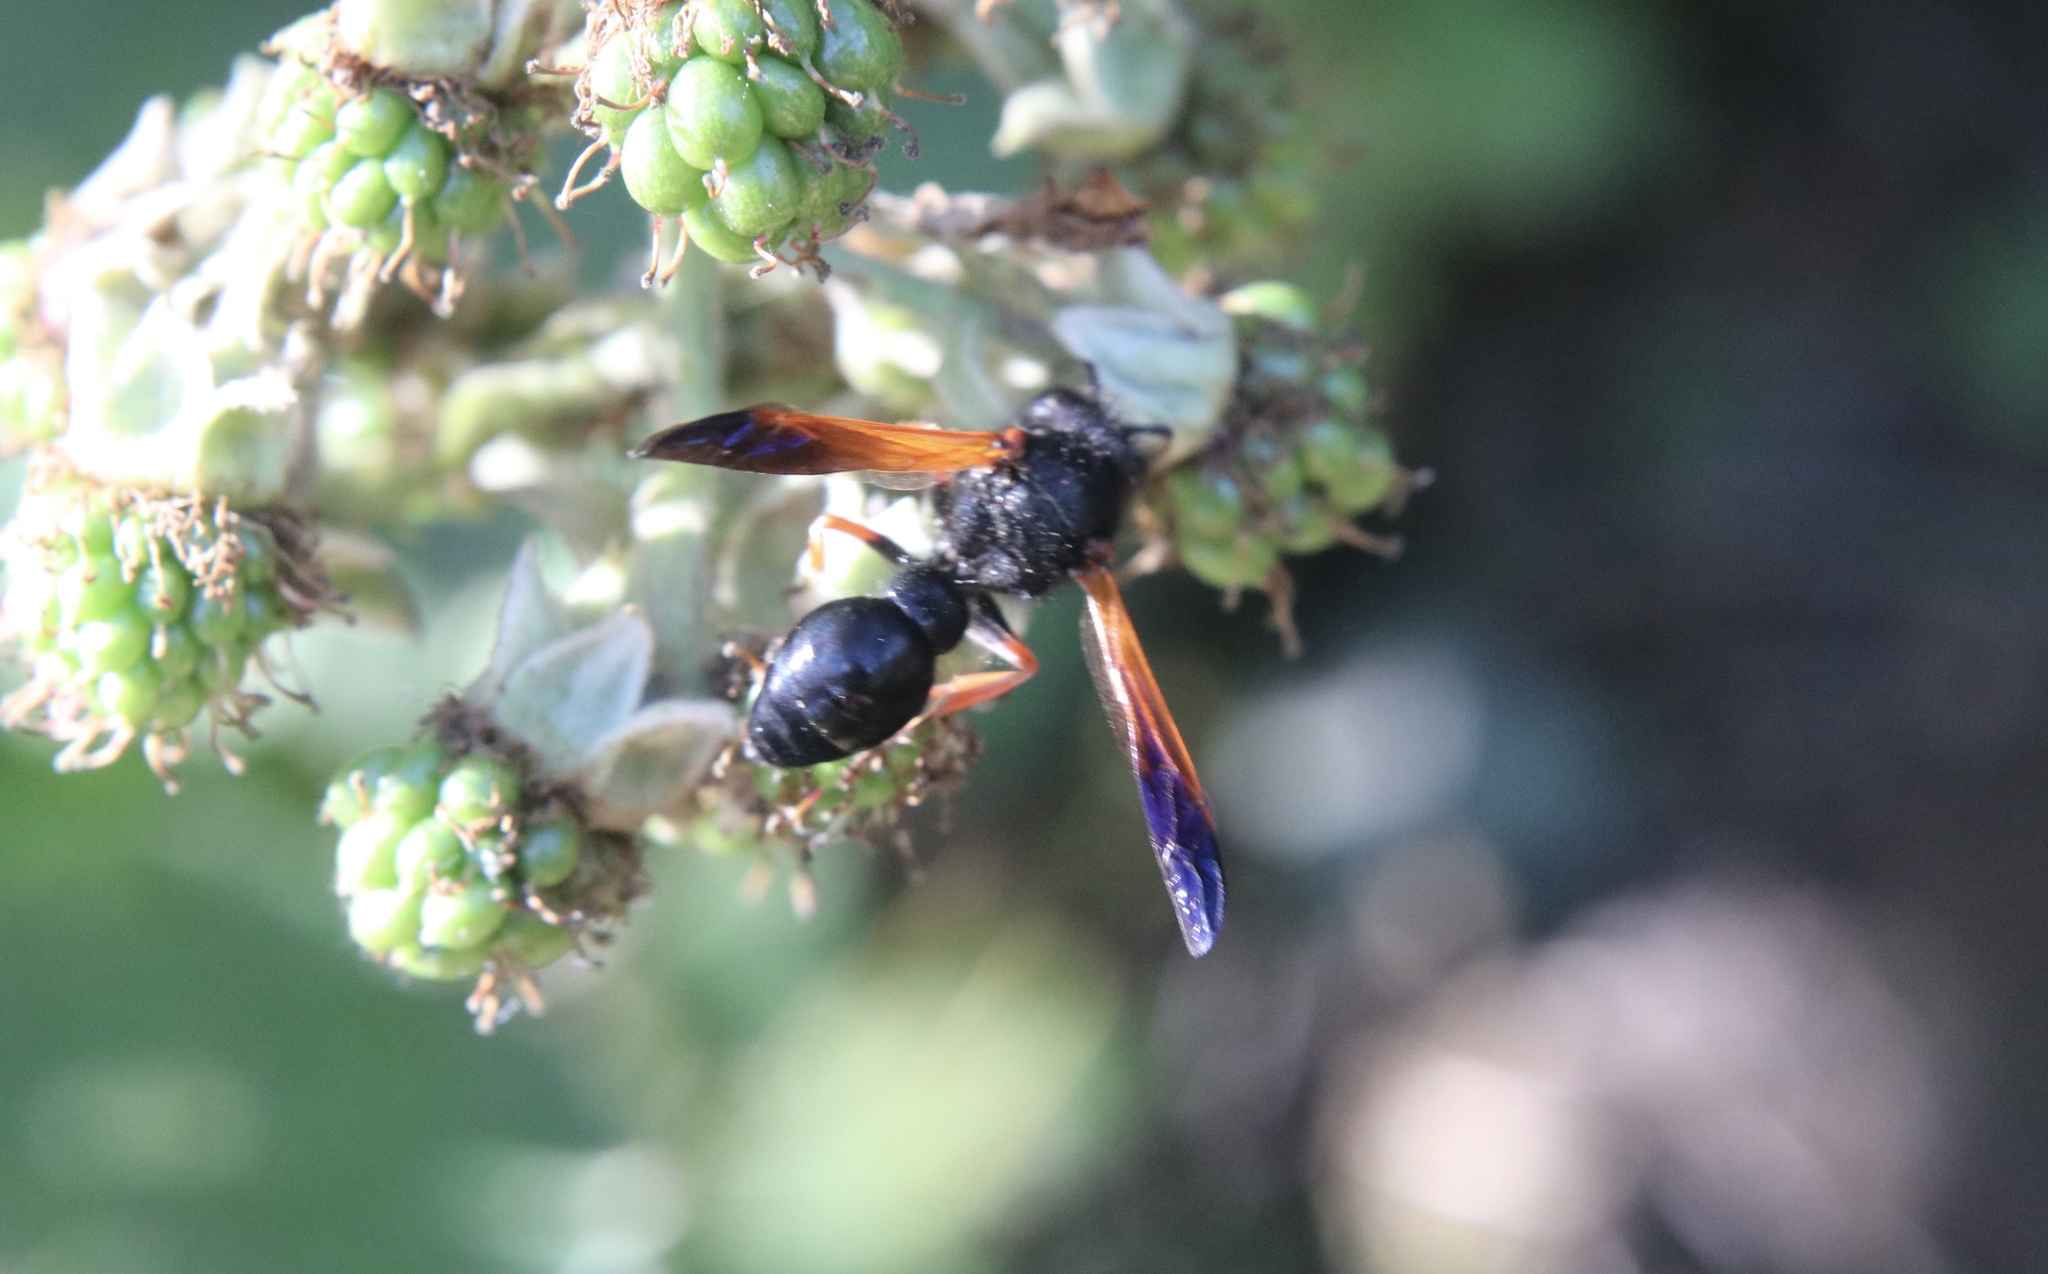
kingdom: Animalia
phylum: Arthropoda
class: Insecta
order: Hymenoptera
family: Vespidae
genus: Hypodynerus
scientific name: Hypodynerus colocolo
